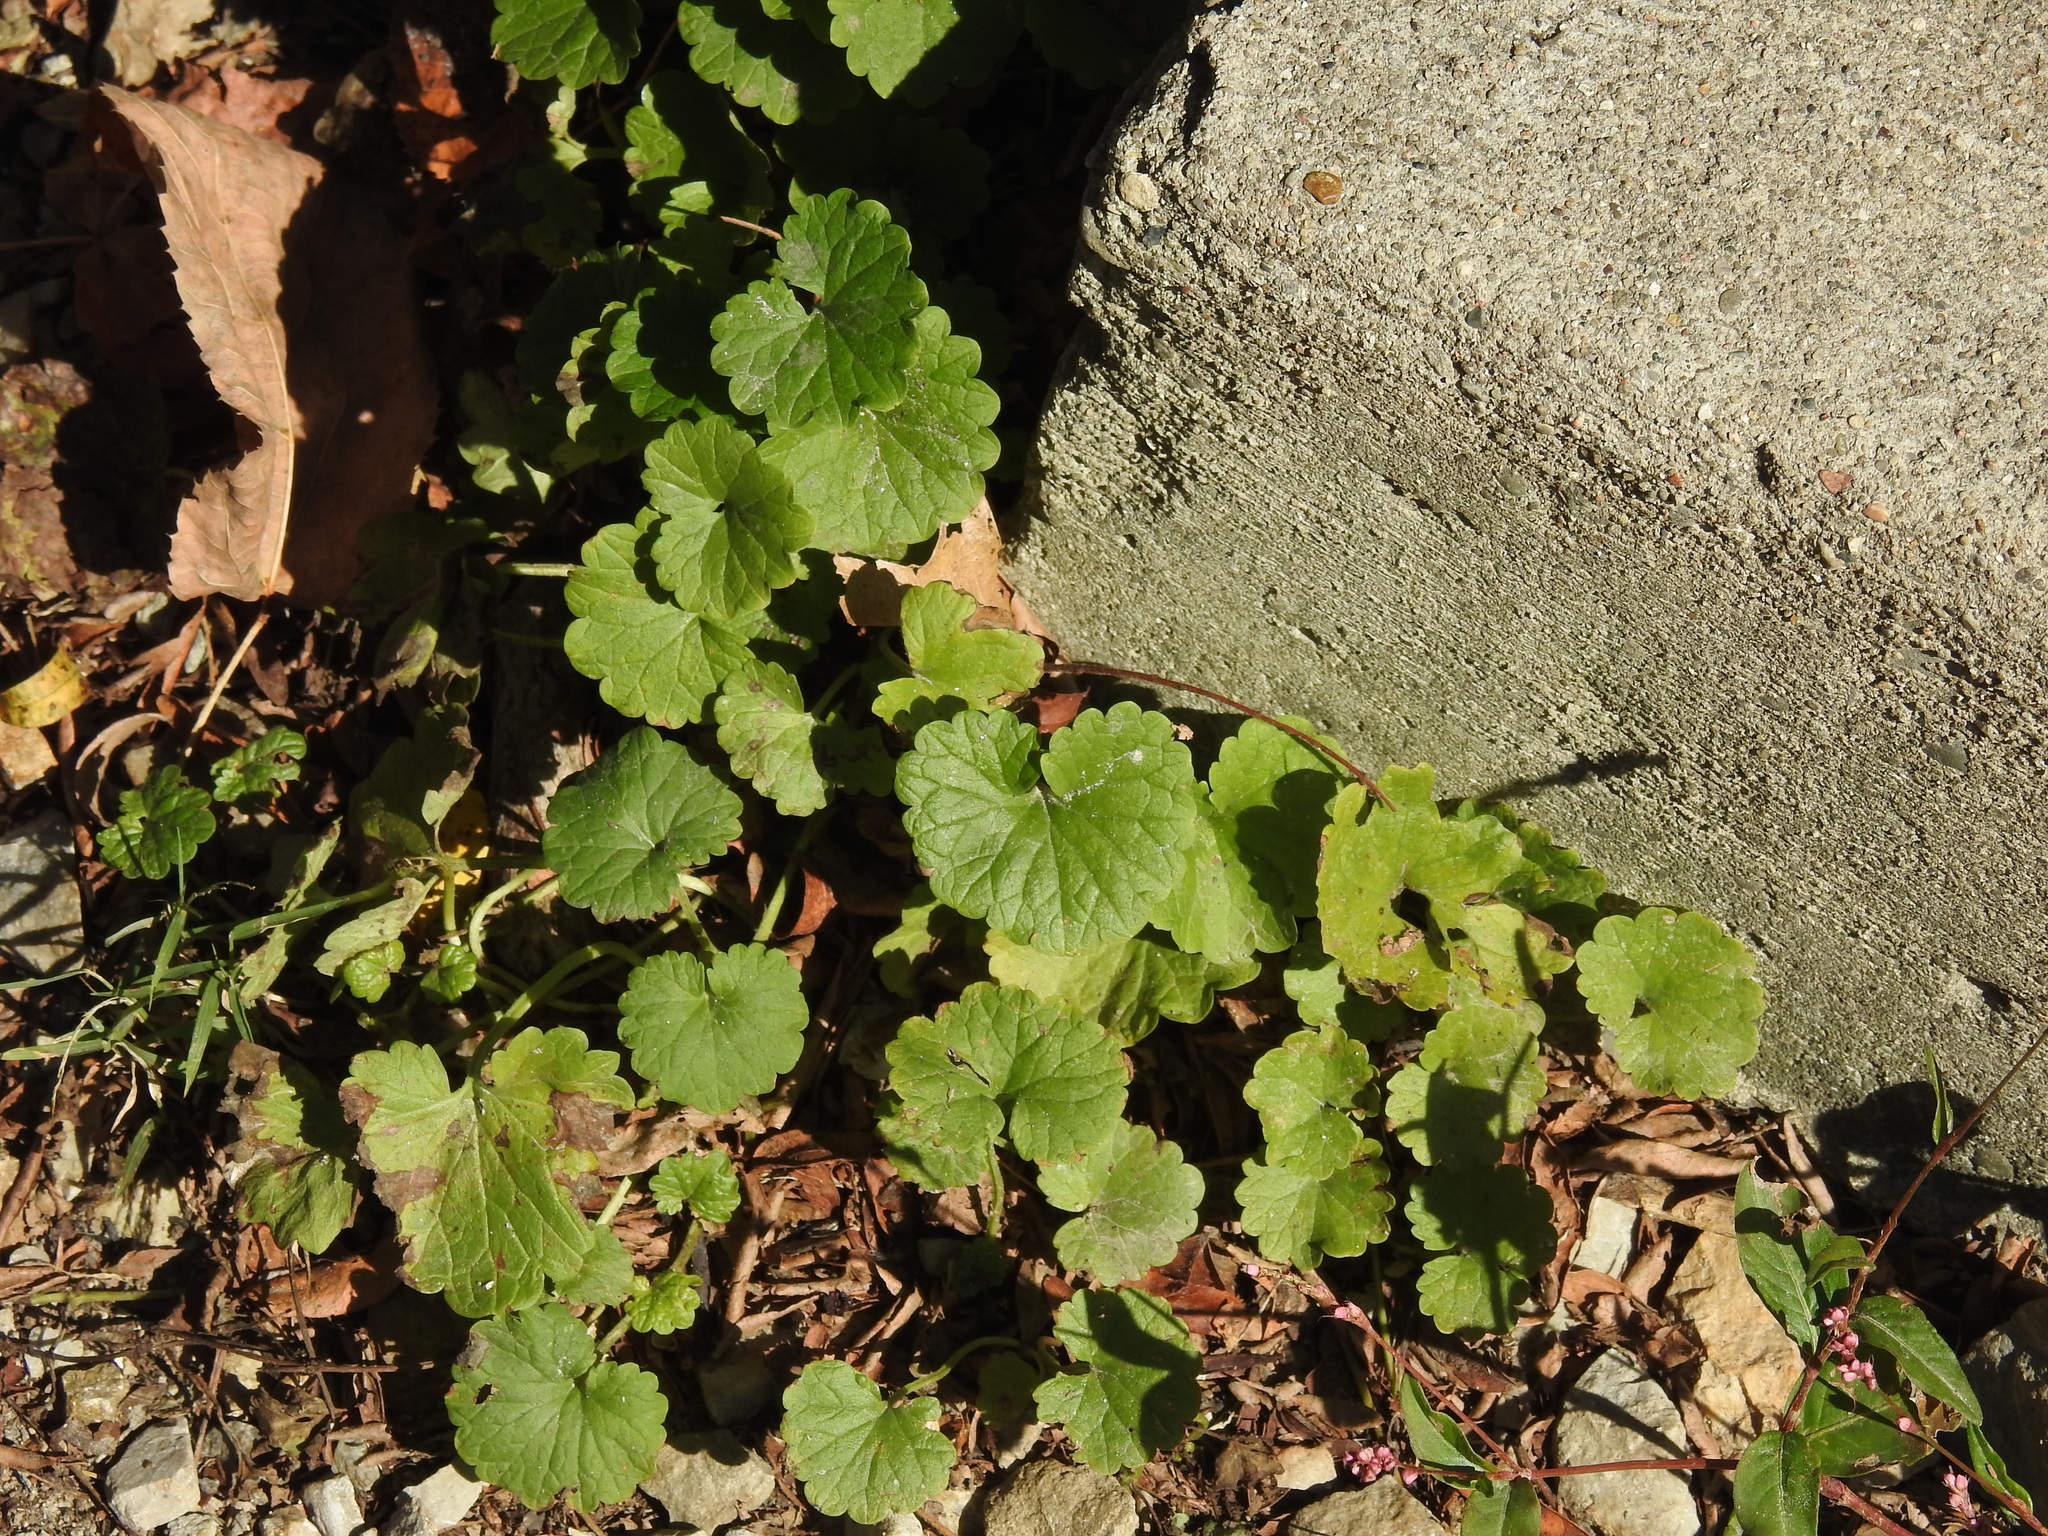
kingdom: Plantae
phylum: Tracheophyta
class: Magnoliopsida
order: Lamiales
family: Lamiaceae
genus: Glechoma
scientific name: Glechoma hederacea
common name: Ground ivy
